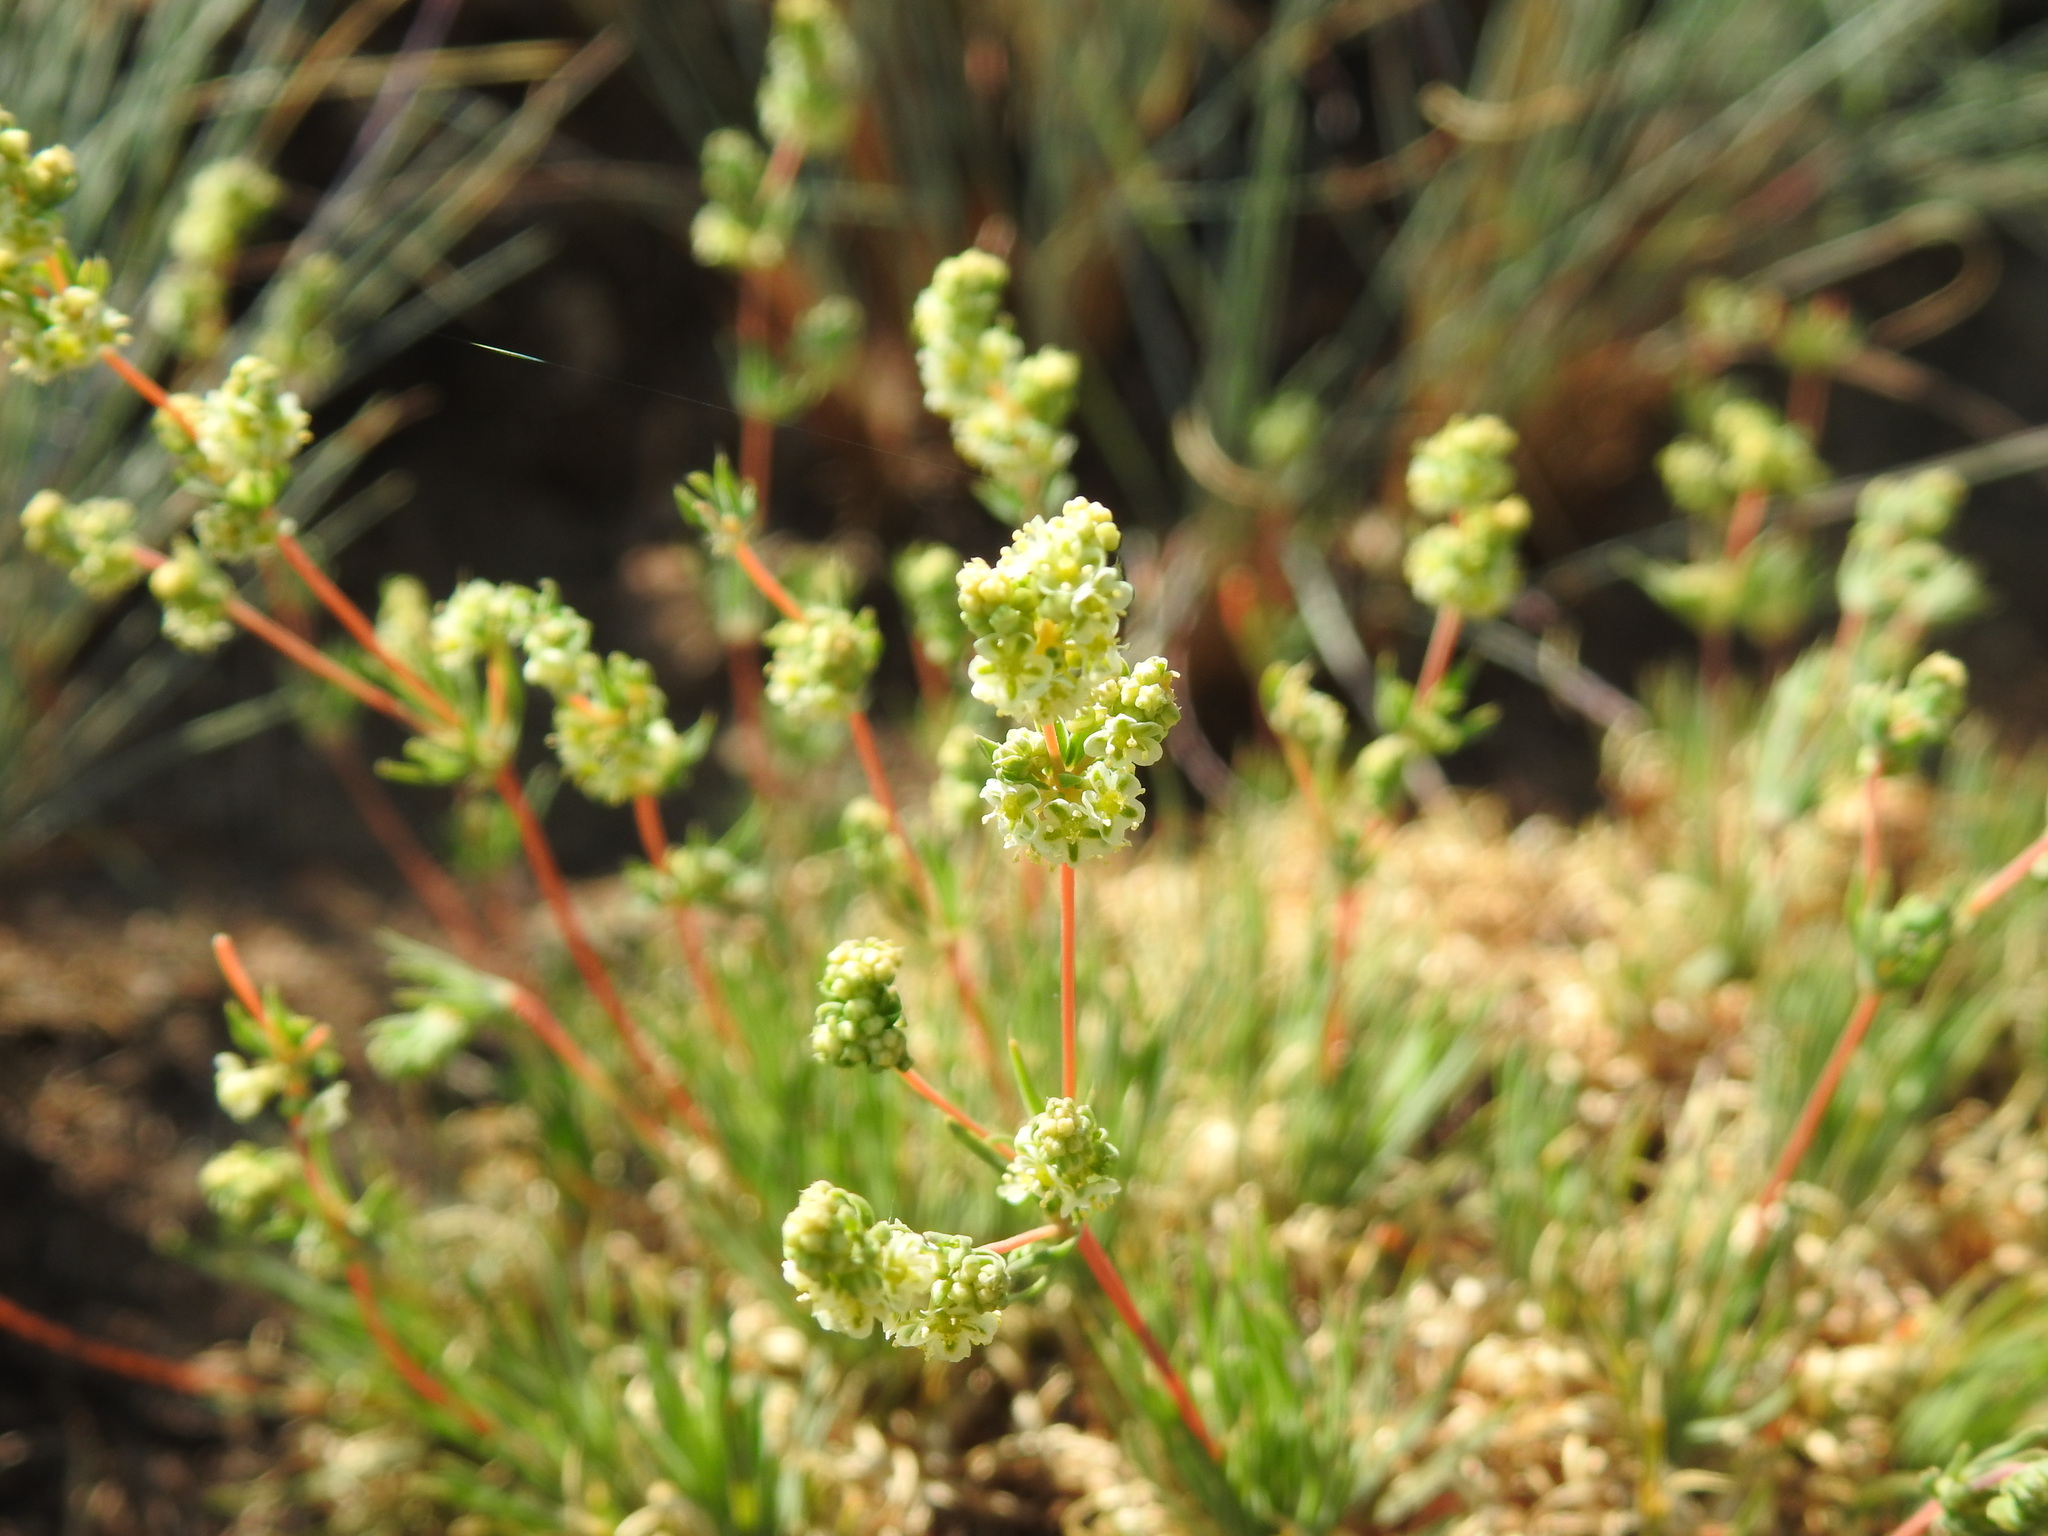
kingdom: Plantae
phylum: Tracheophyta
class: Magnoliopsida
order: Caryophyllales
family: Molluginaceae
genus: Psammotropha
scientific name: Psammotropha myriantha
